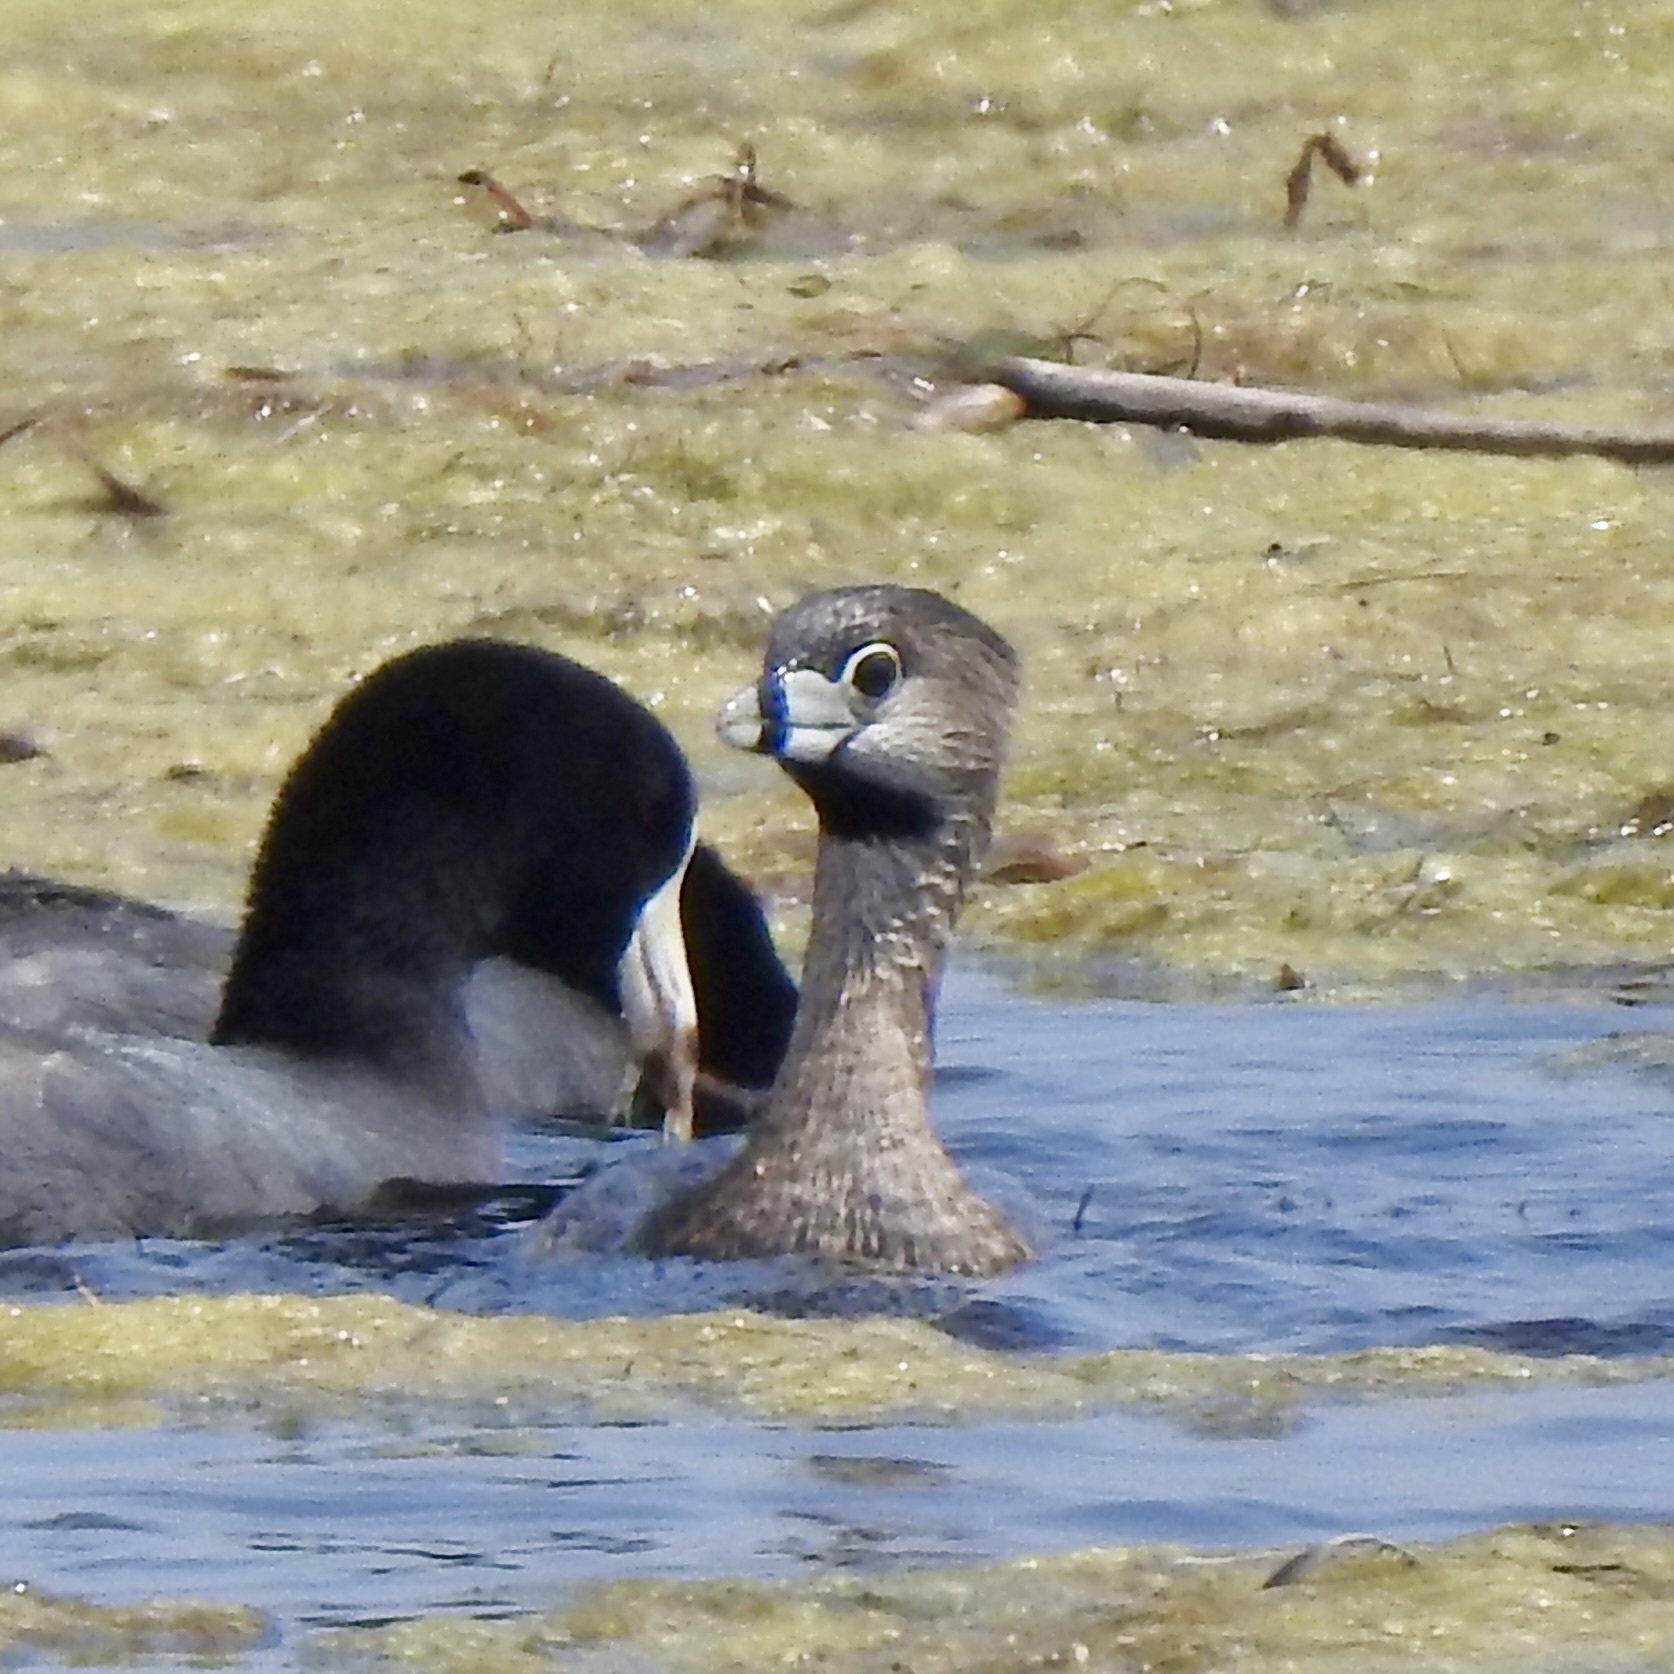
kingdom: Animalia
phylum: Chordata
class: Aves
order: Podicipediformes
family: Podicipedidae
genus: Podilymbus
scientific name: Podilymbus podiceps
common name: Pied-billed grebe
